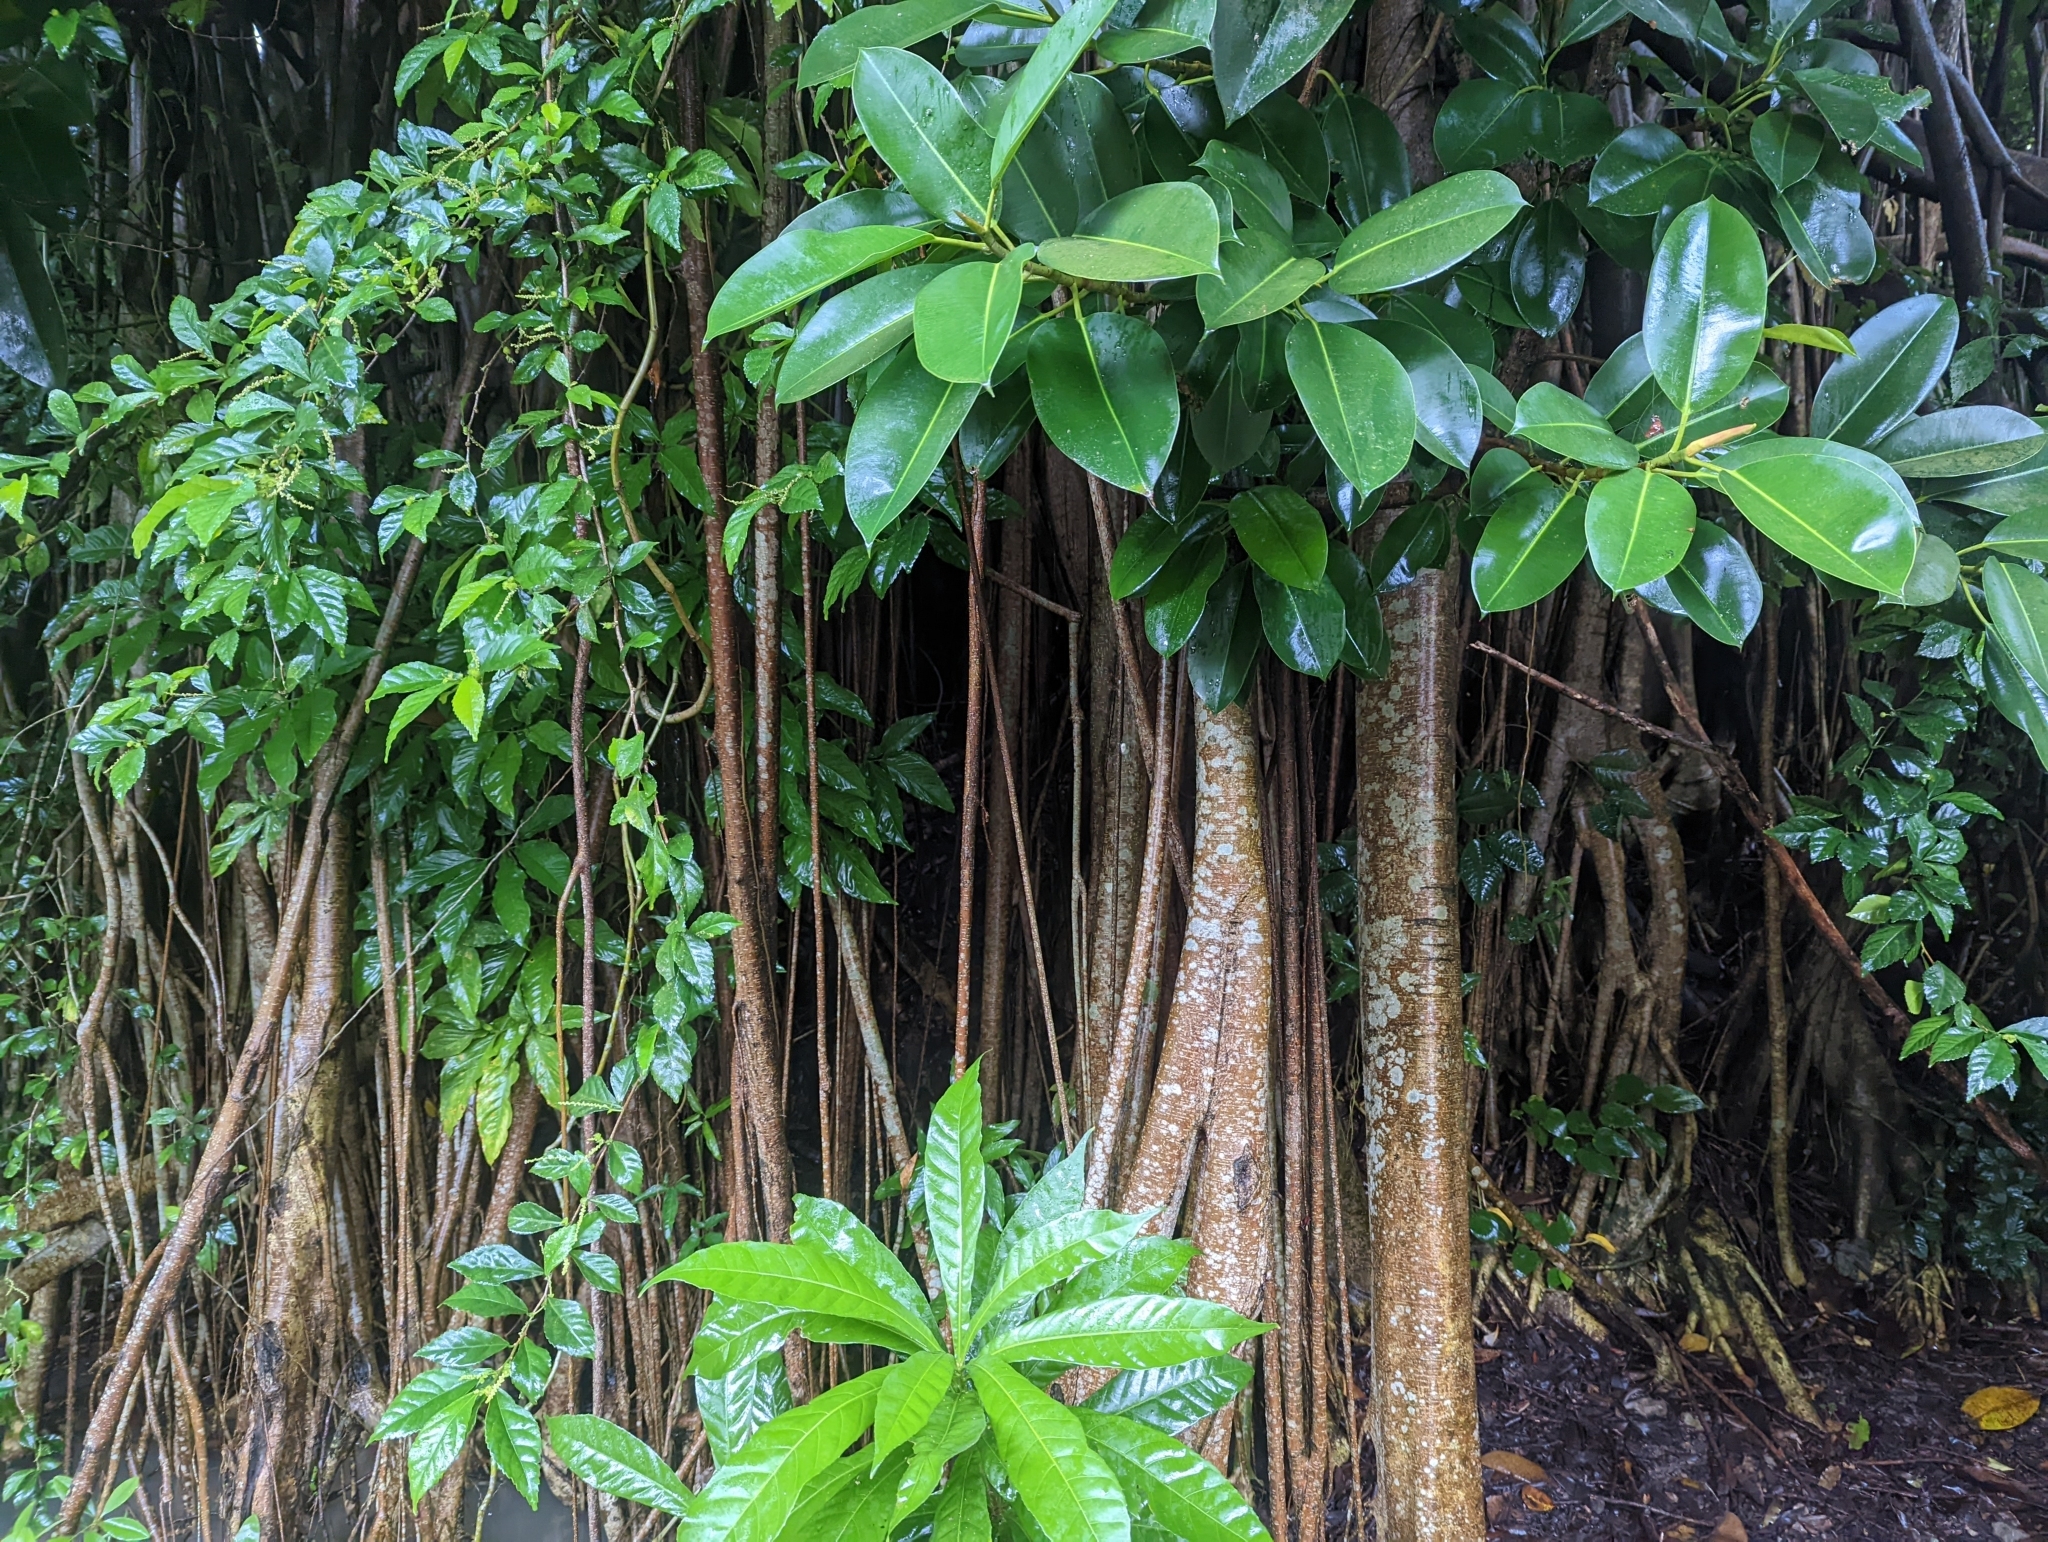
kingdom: Plantae
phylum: Tracheophyta
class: Magnoliopsida
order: Rosales
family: Moraceae
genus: Ficus
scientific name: Ficus elastica
